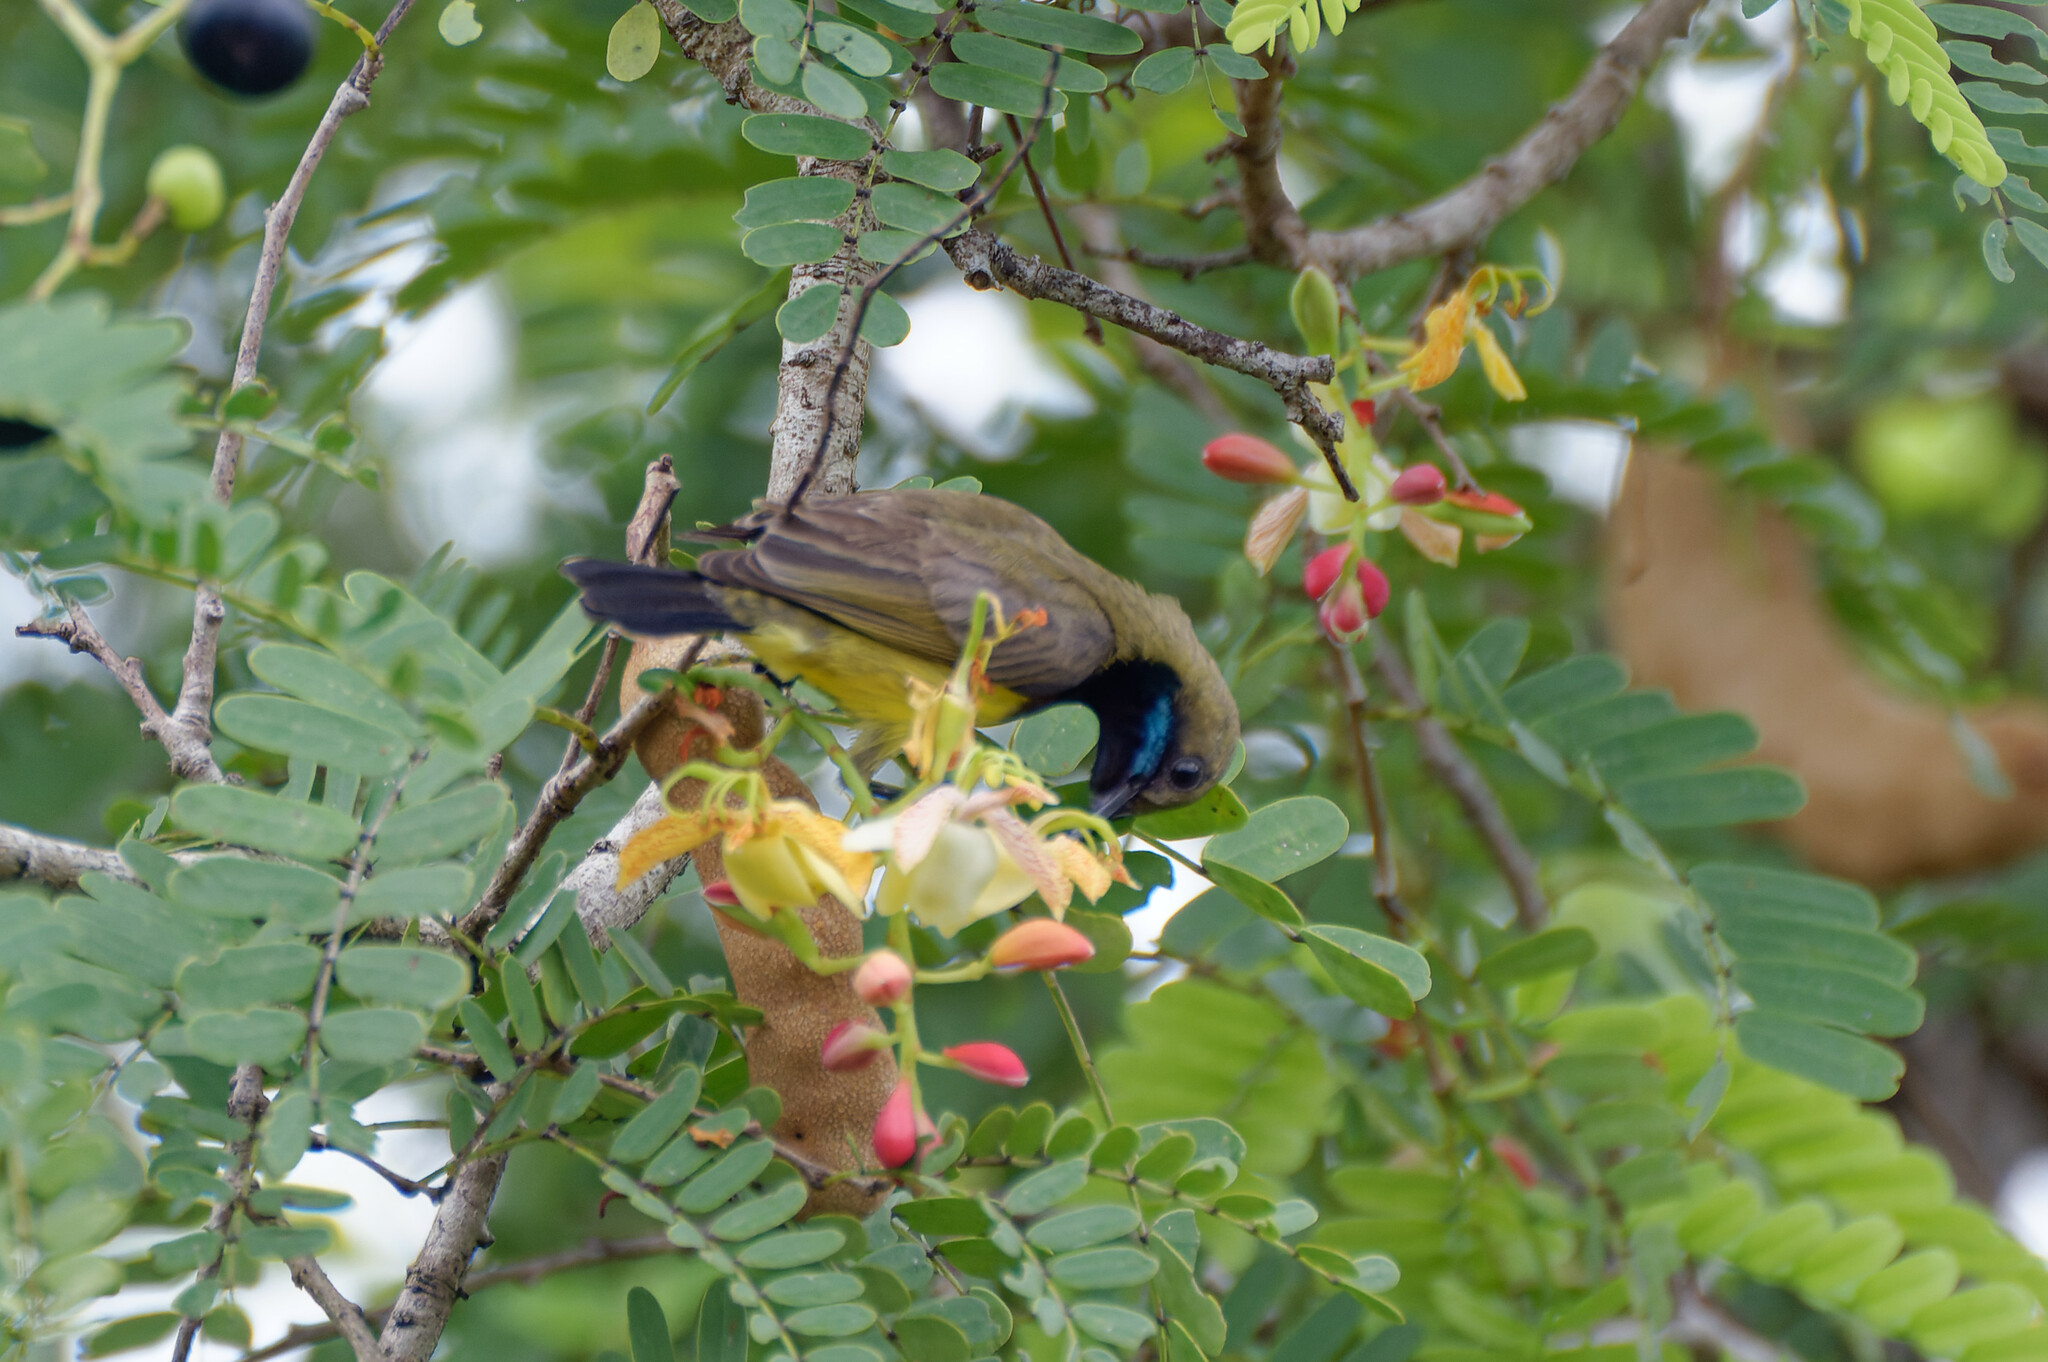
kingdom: Animalia
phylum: Chordata
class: Aves
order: Passeriformes
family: Nectariniidae
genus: Cinnyris
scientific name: Cinnyris
